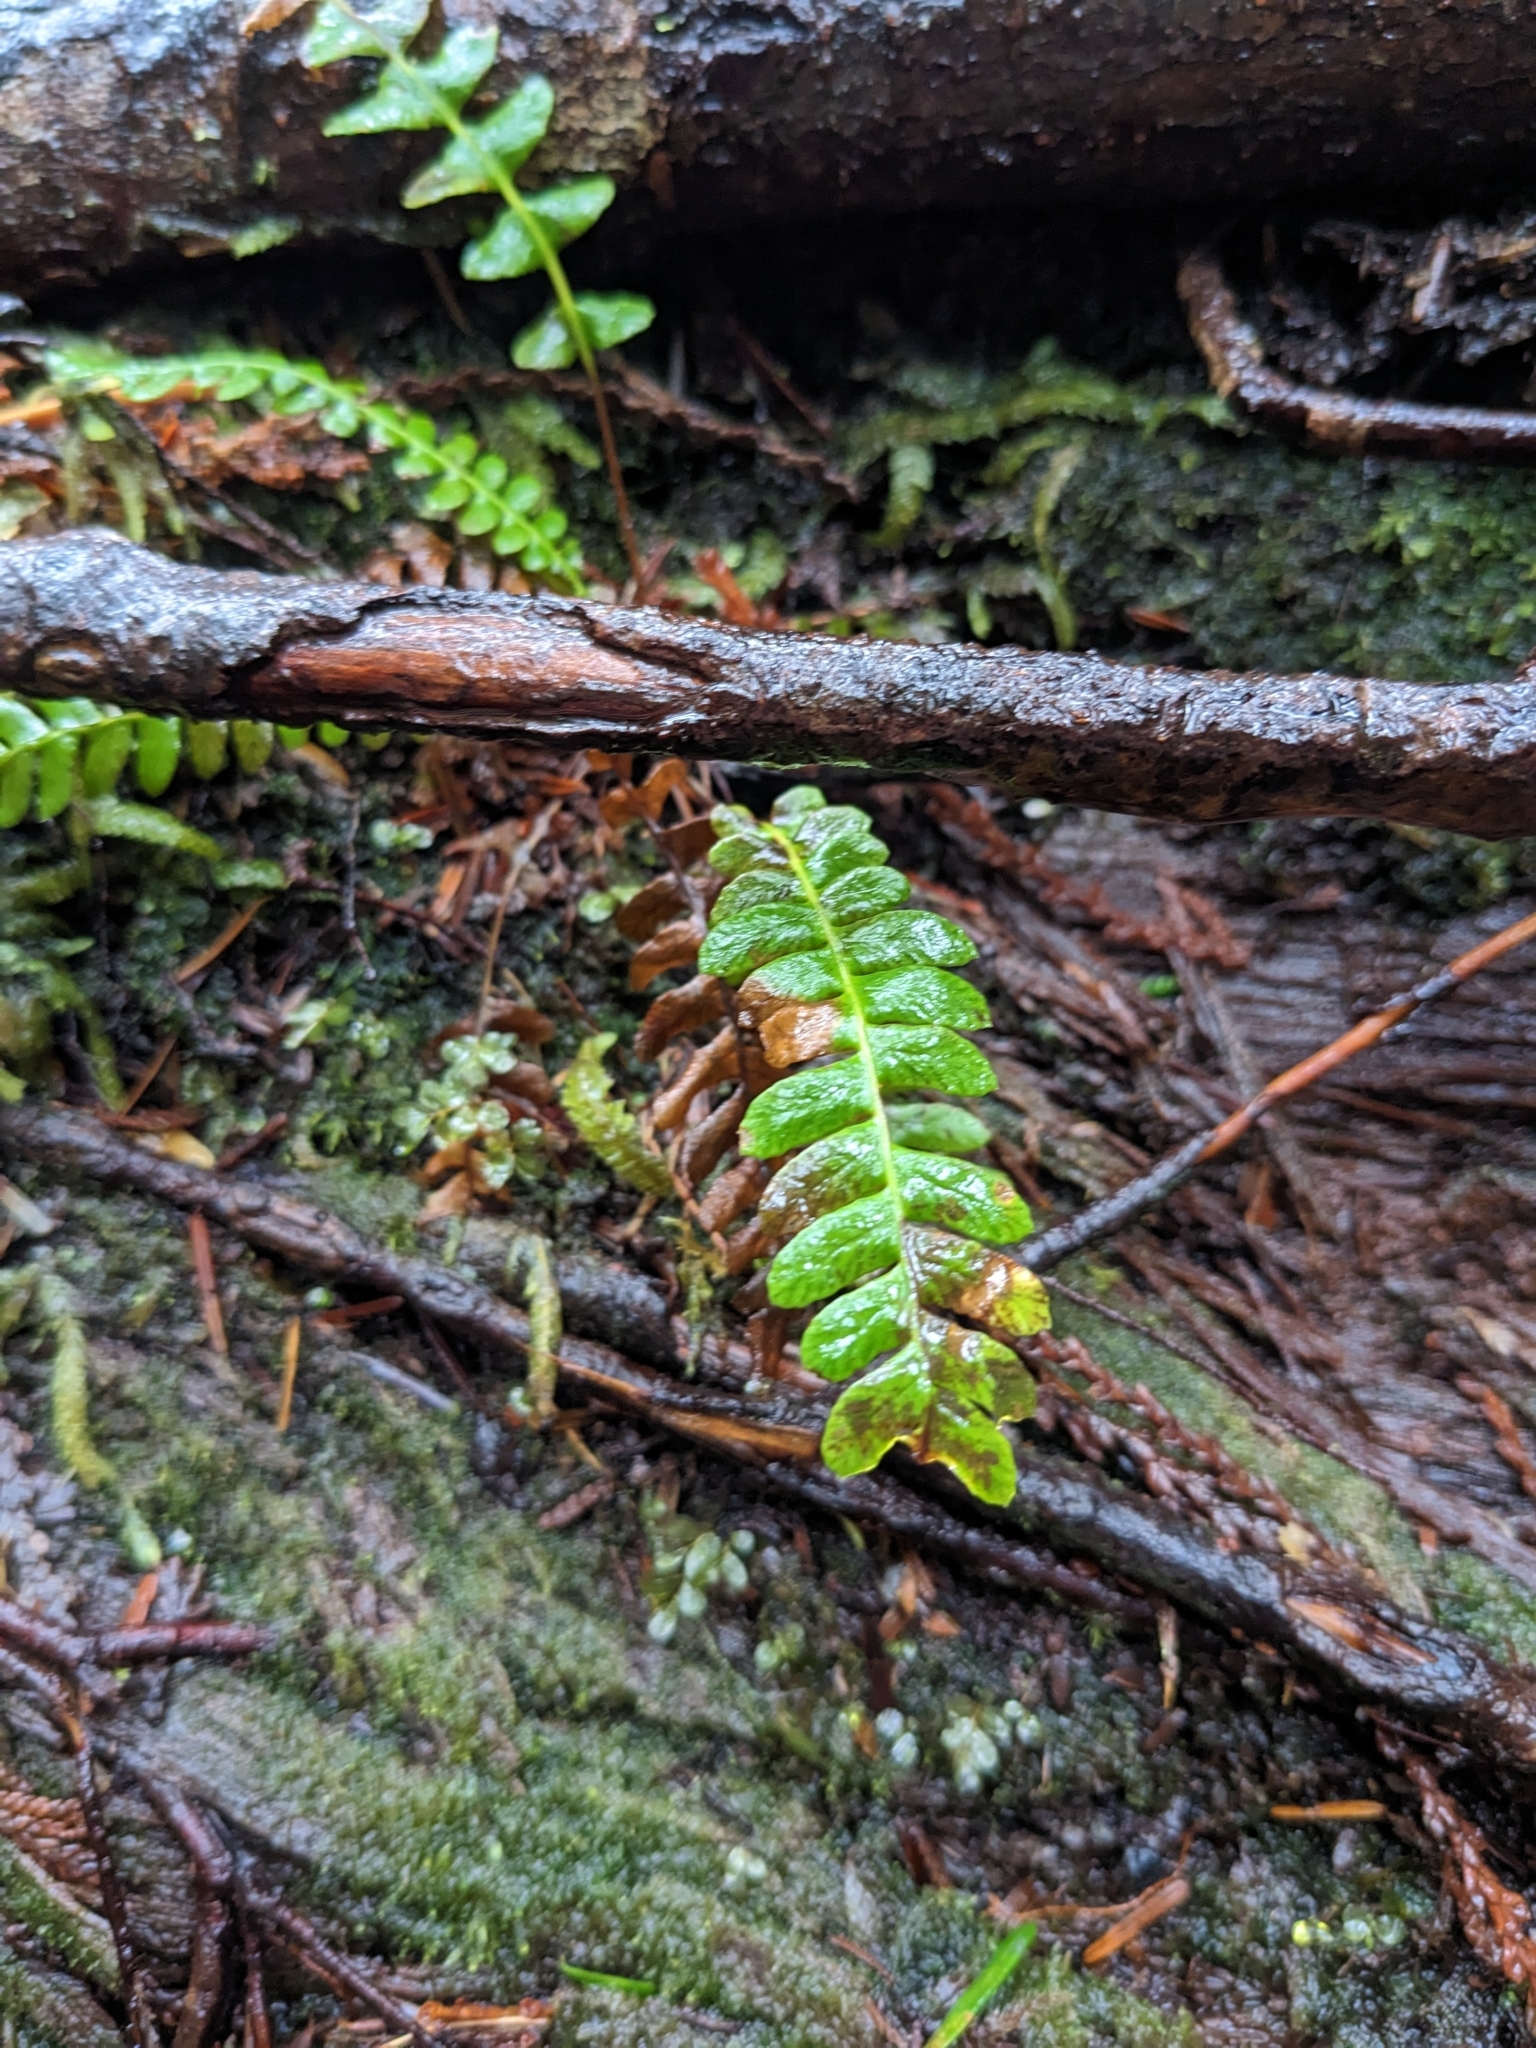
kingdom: Plantae
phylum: Tracheophyta
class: Polypodiopsida
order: Polypodiales
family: Blechnaceae
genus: Struthiopteris
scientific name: Struthiopteris spicant
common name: Deer fern
